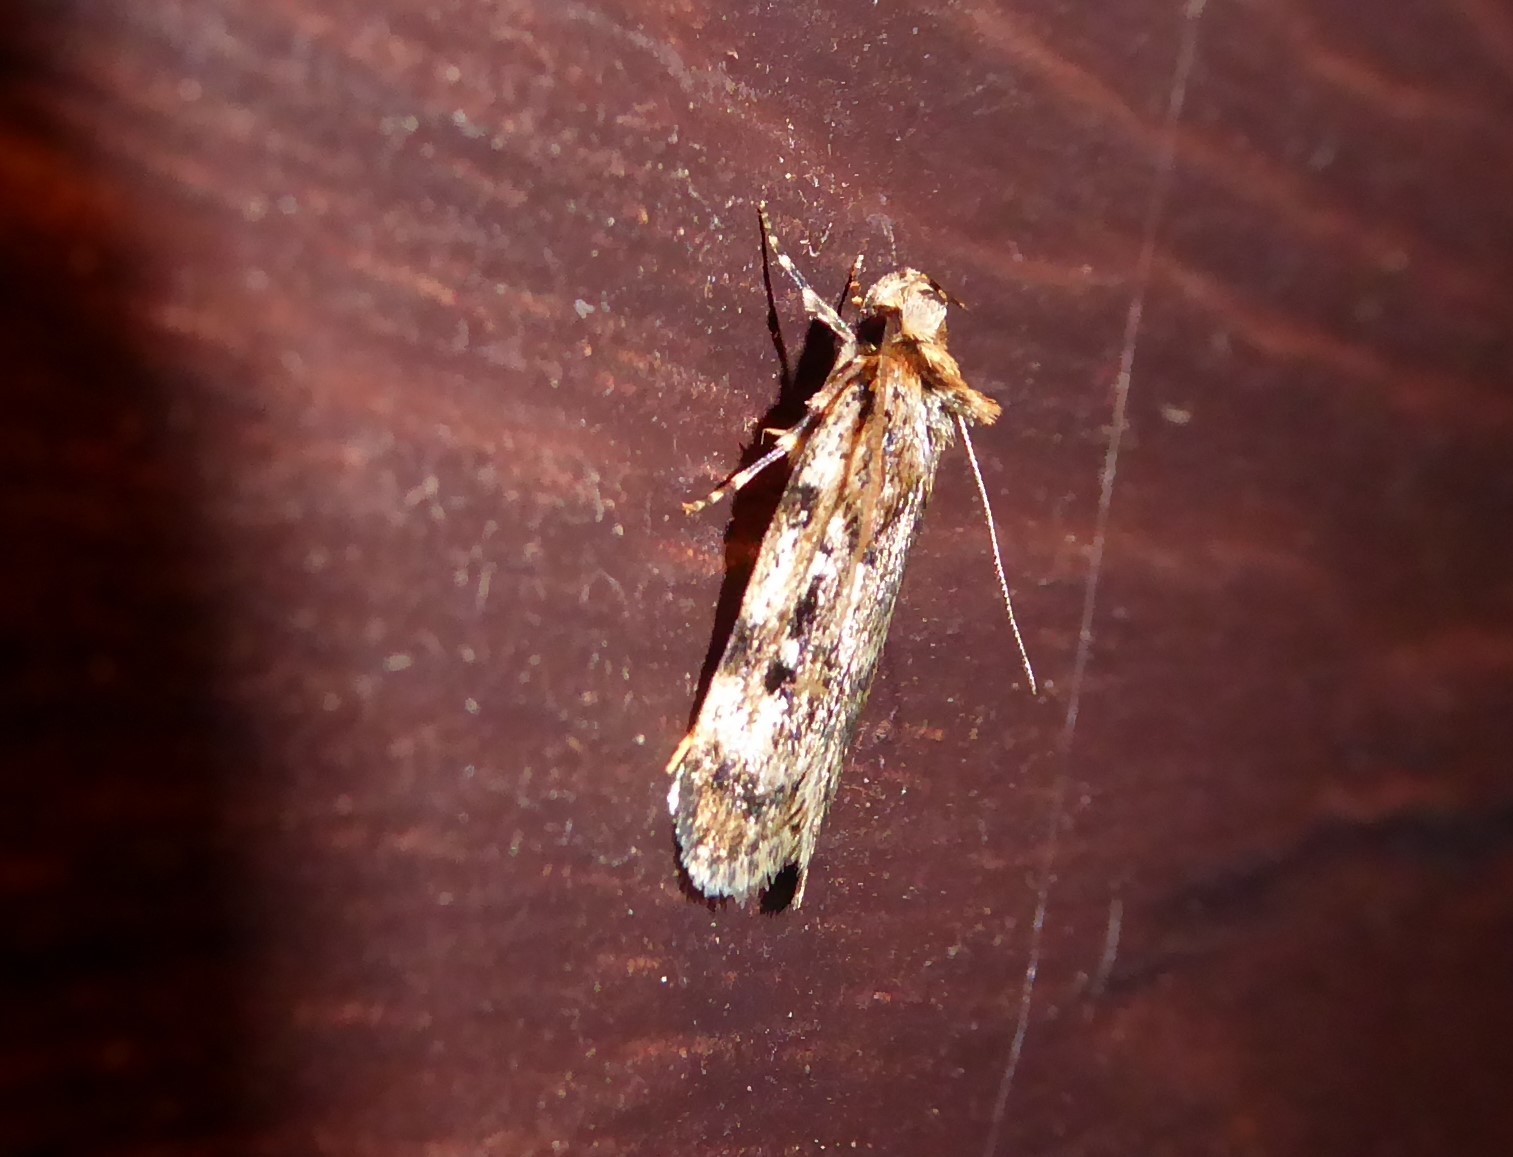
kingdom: Animalia
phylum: Arthropoda
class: Insecta
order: Lepidoptera
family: Oecophoridae
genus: Barea
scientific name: Barea exarcha
